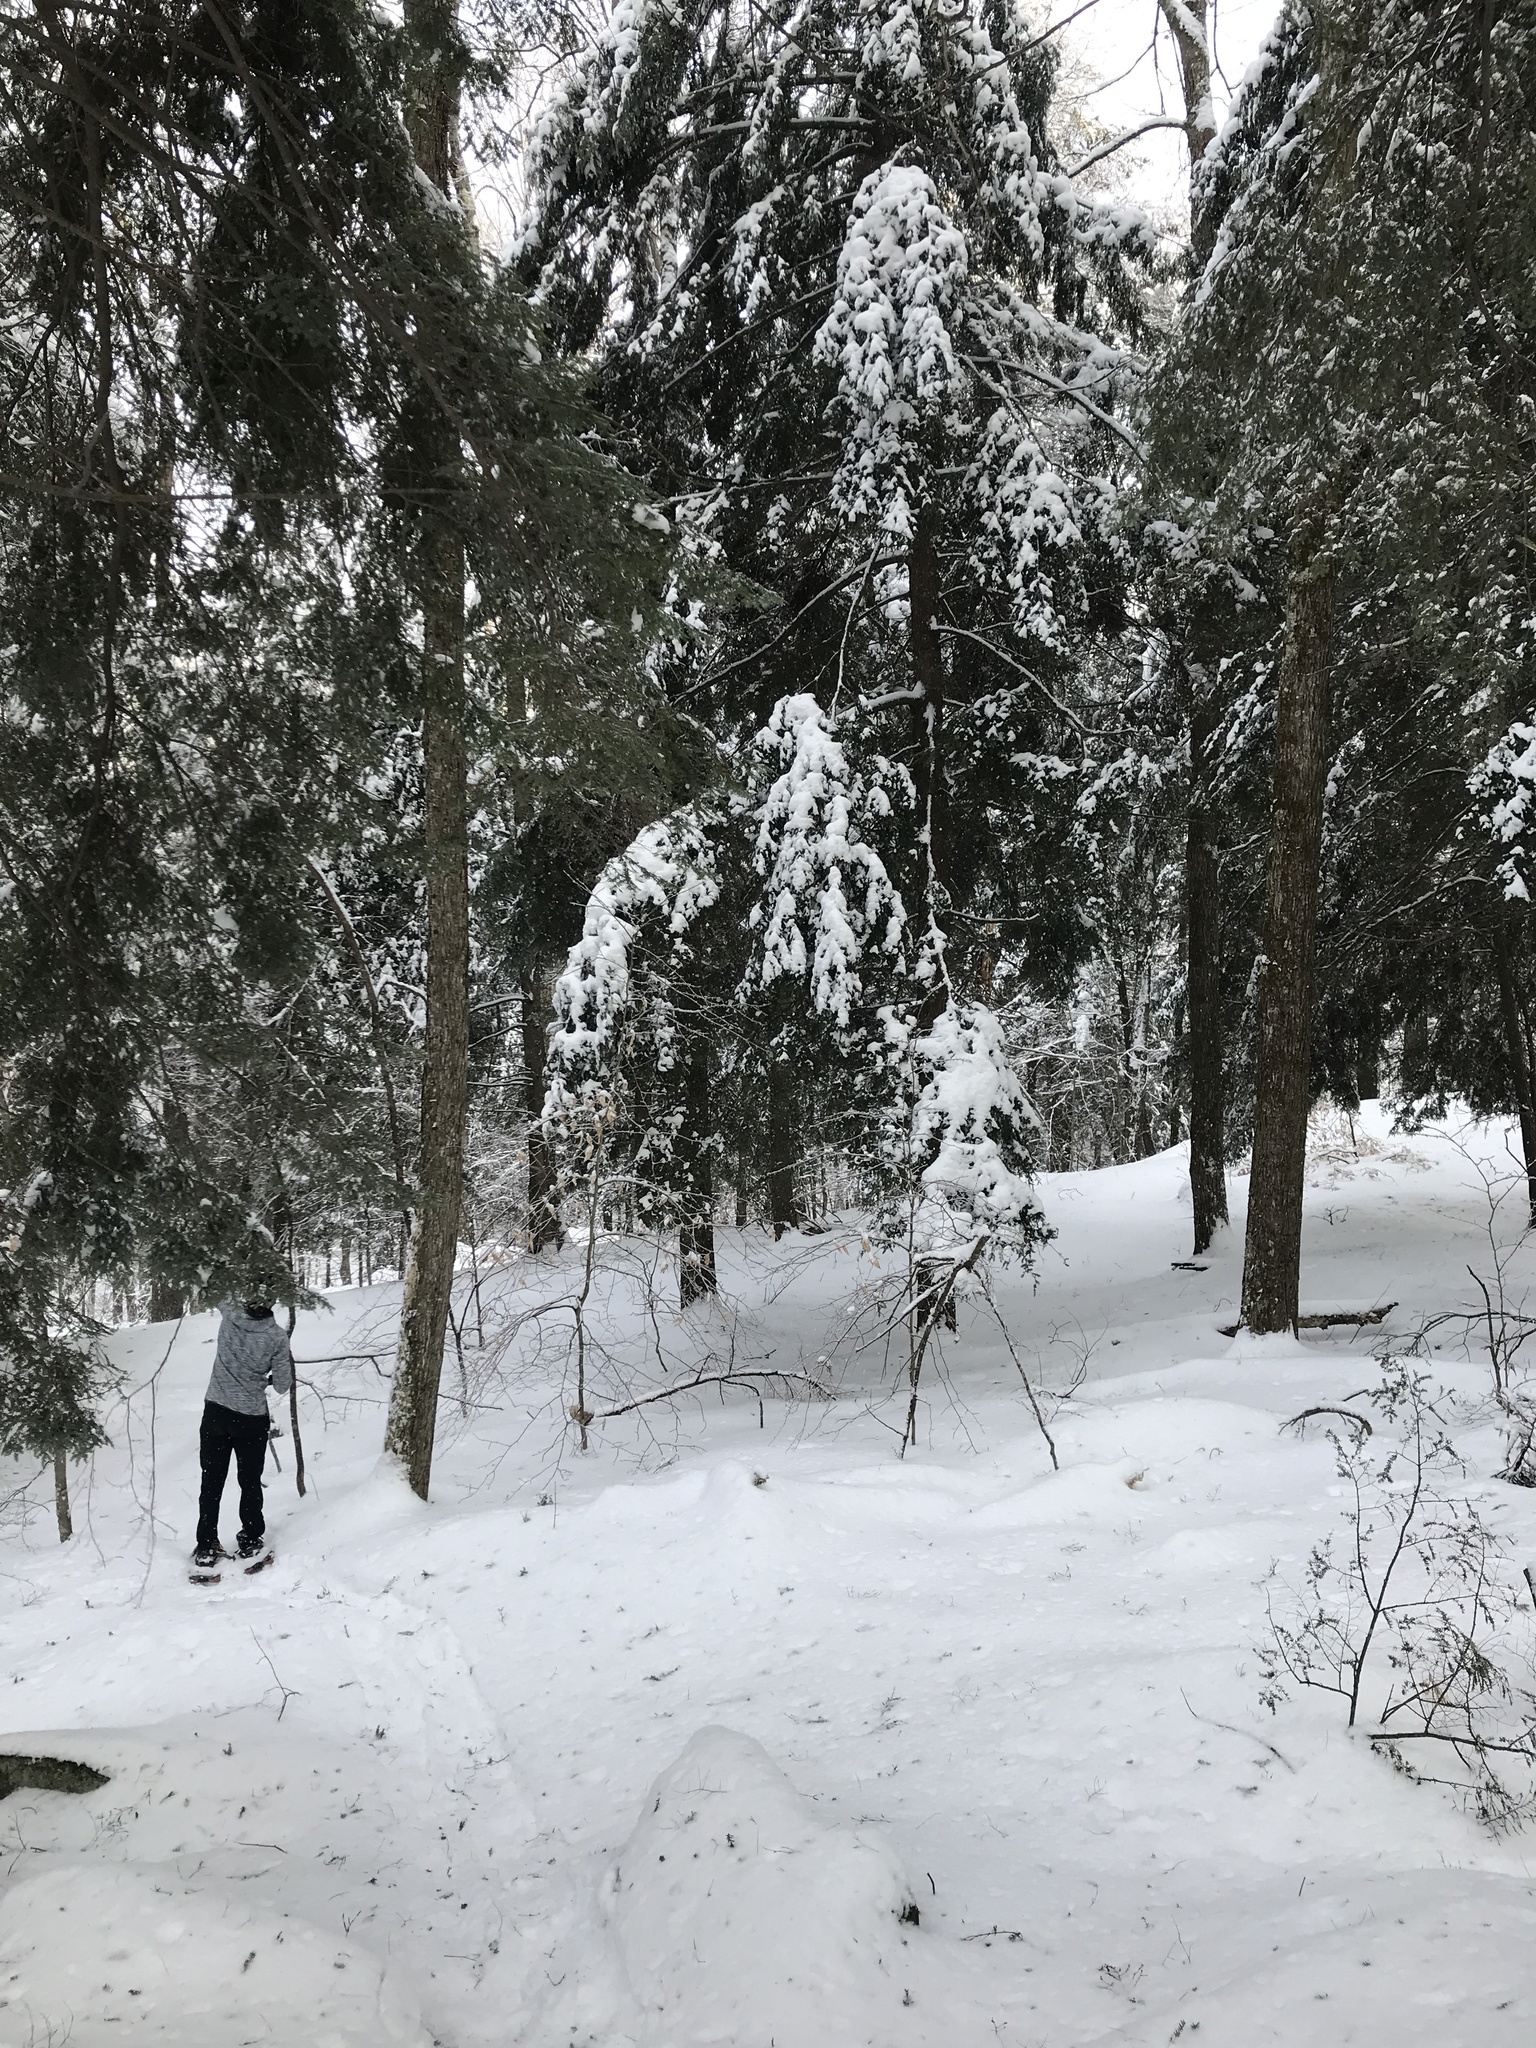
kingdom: Plantae
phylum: Tracheophyta
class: Pinopsida
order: Pinales
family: Pinaceae
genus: Tsuga
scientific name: Tsuga canadensis
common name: Eastern hemlock
